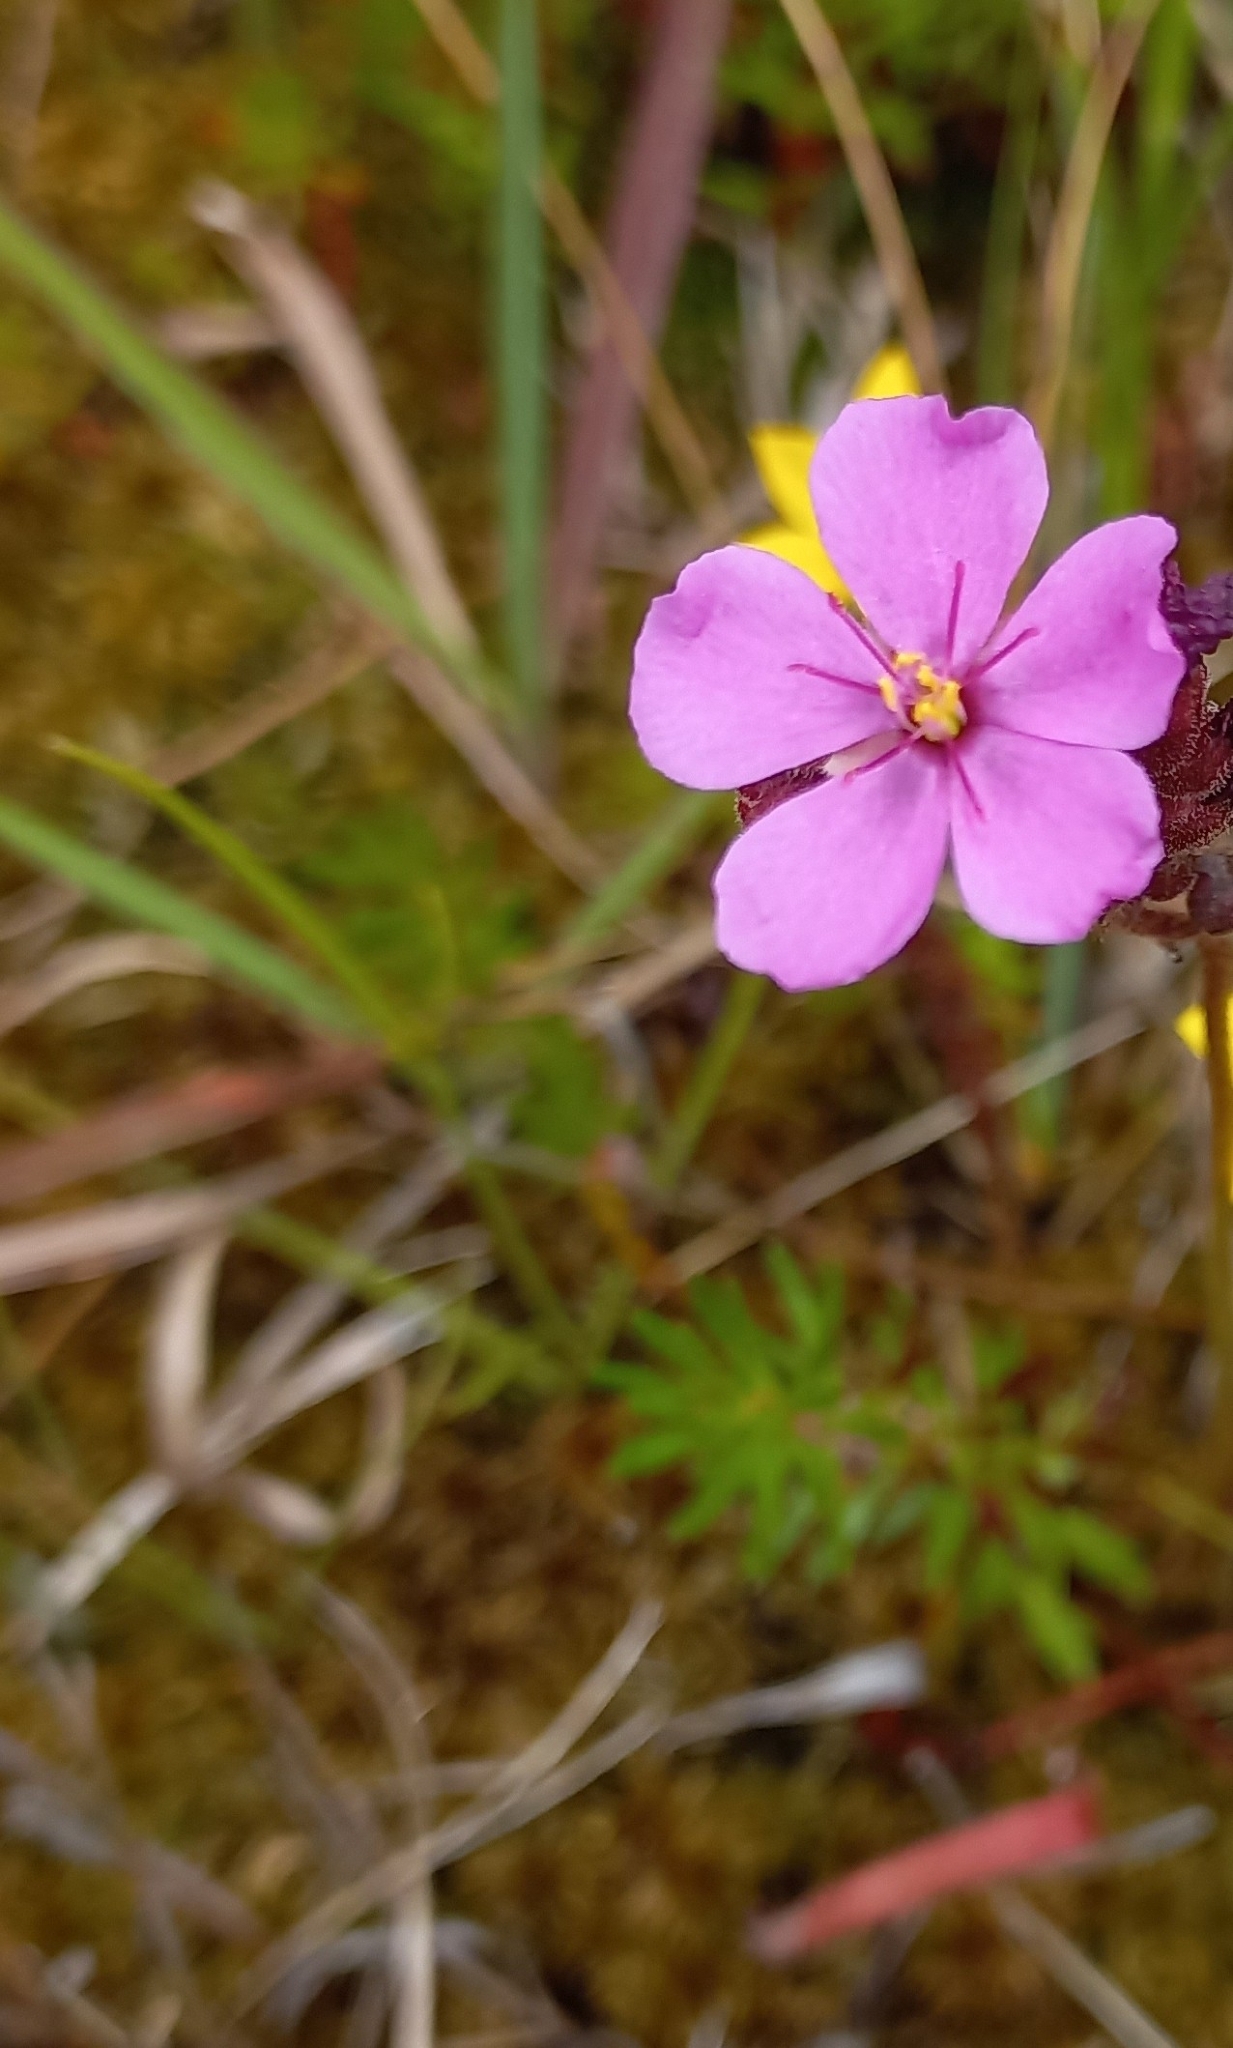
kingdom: Plantae
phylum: Tracheophyta
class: Magnoliopsida
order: Caryophyllales
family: Droseraceae
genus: Drosera
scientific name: Drosera capensis
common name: Cape sundew
